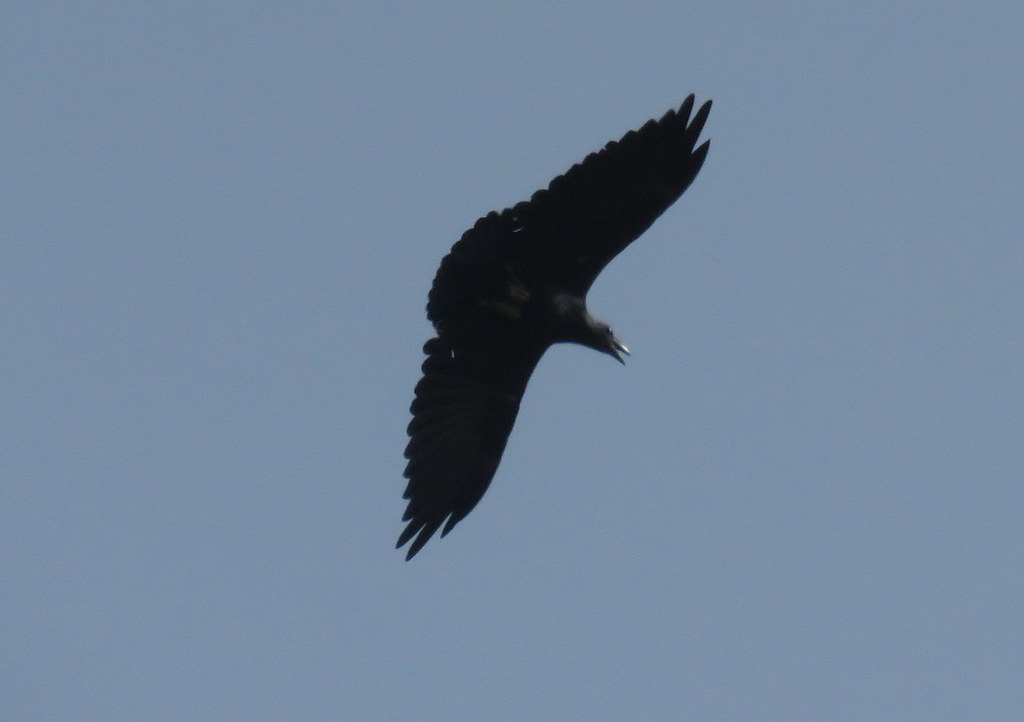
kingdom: Animalia
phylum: Chordata
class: Aves
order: Passeriformes
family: Corvidae
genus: Corvus
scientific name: Corvus rhipidurus
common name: Fan-tailed raven
